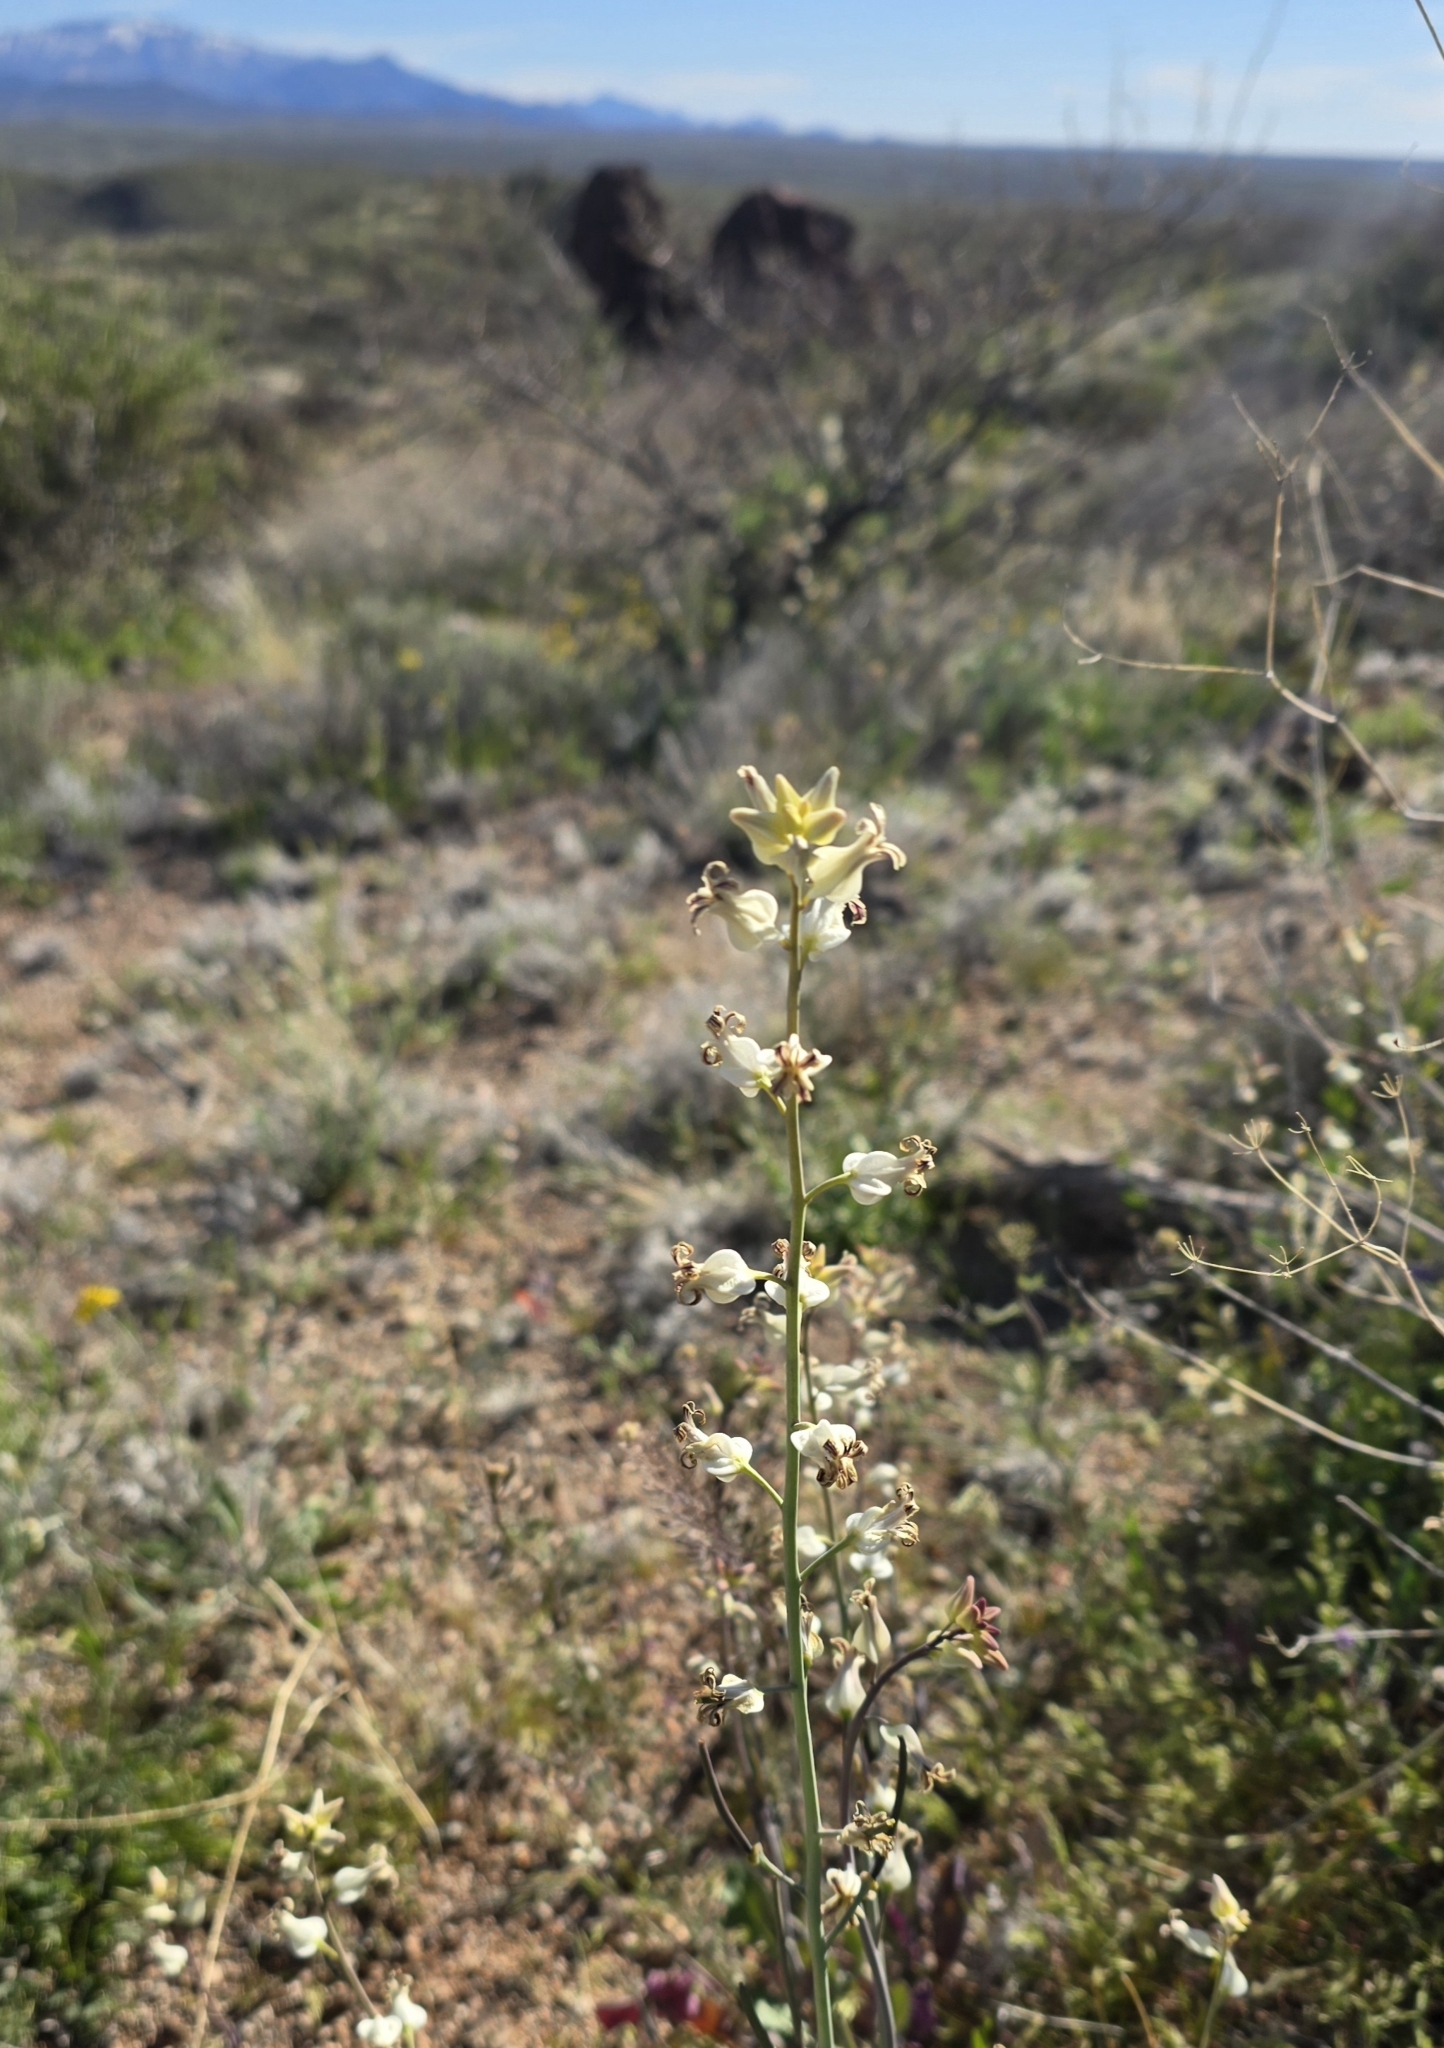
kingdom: Plantae
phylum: Tracheophyta
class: Magnoliopsida
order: Brassicales
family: Brassicaceae
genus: Streptanthus
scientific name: Streptanthus carinatus
